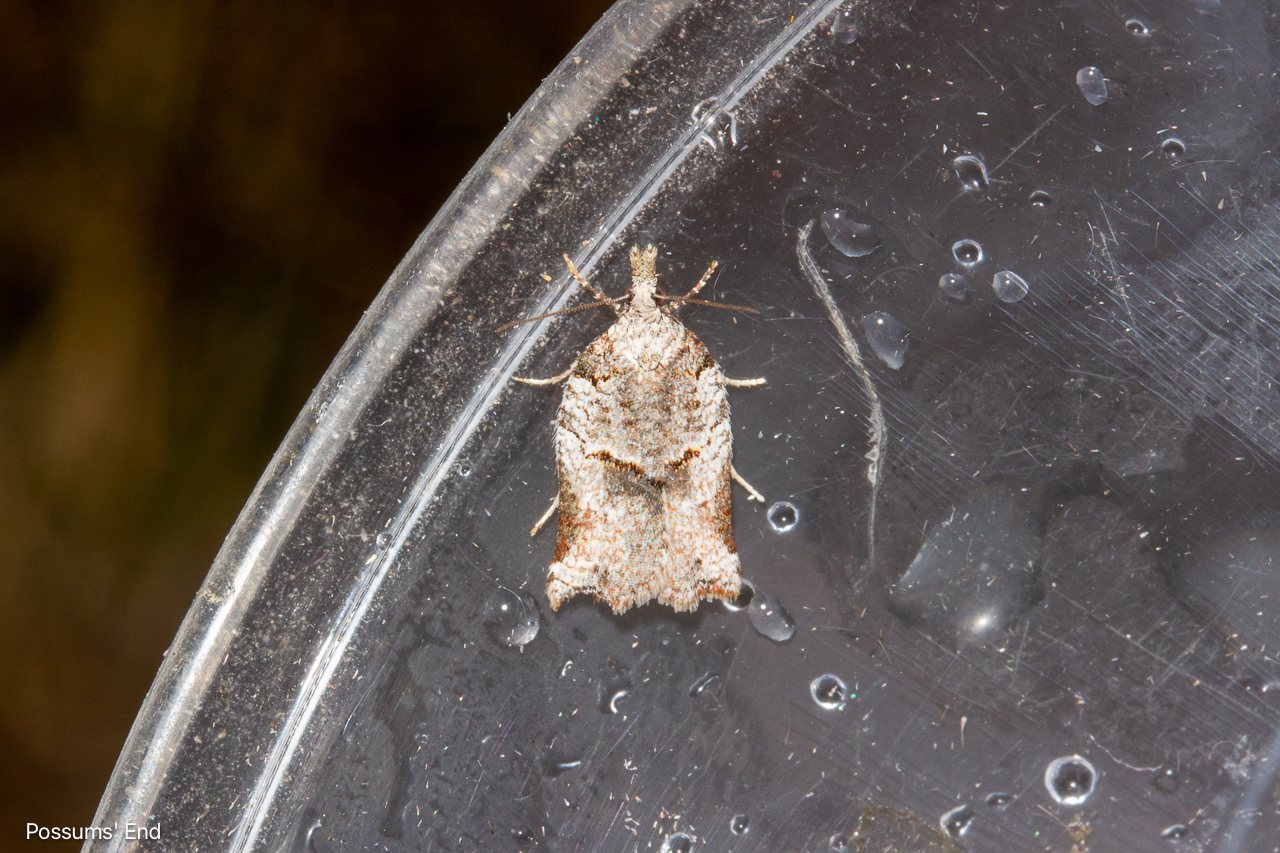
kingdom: Animalia
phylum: Arthropoda
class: Insecta
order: Lepidoptera
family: Tortricidae
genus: Harmologa
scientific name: Harmologa amplexana
